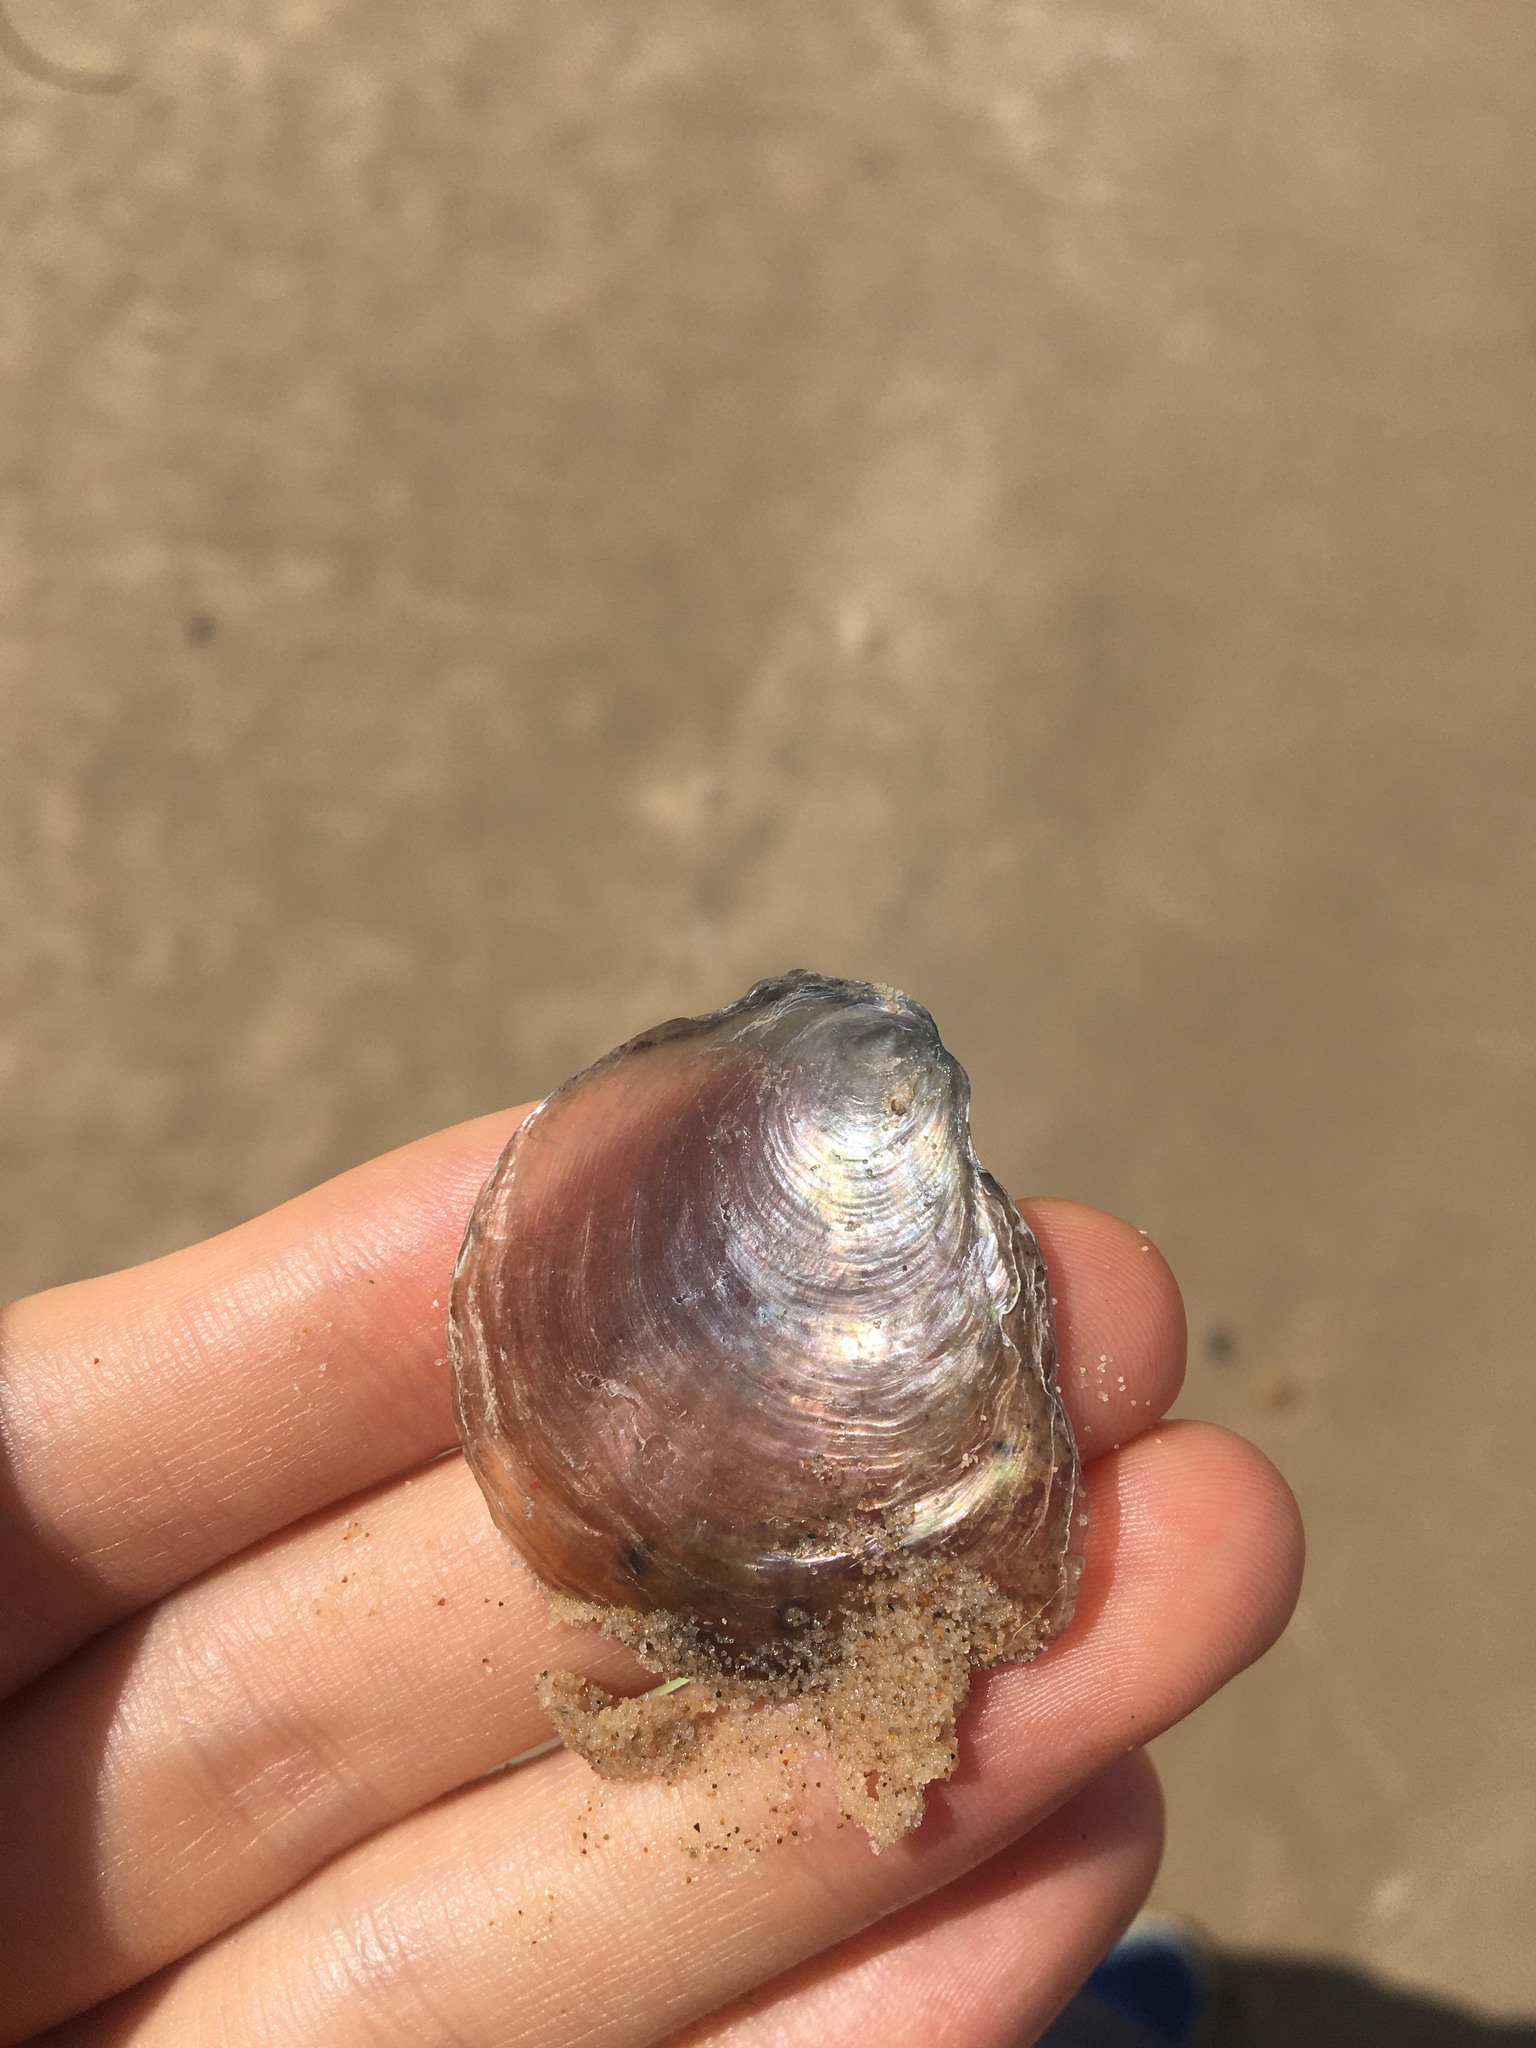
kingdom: Animalia
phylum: Mollusca
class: Bivalvia
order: Pectinida
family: Anomiidae
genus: Anomia
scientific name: Anomia trigonopsis
